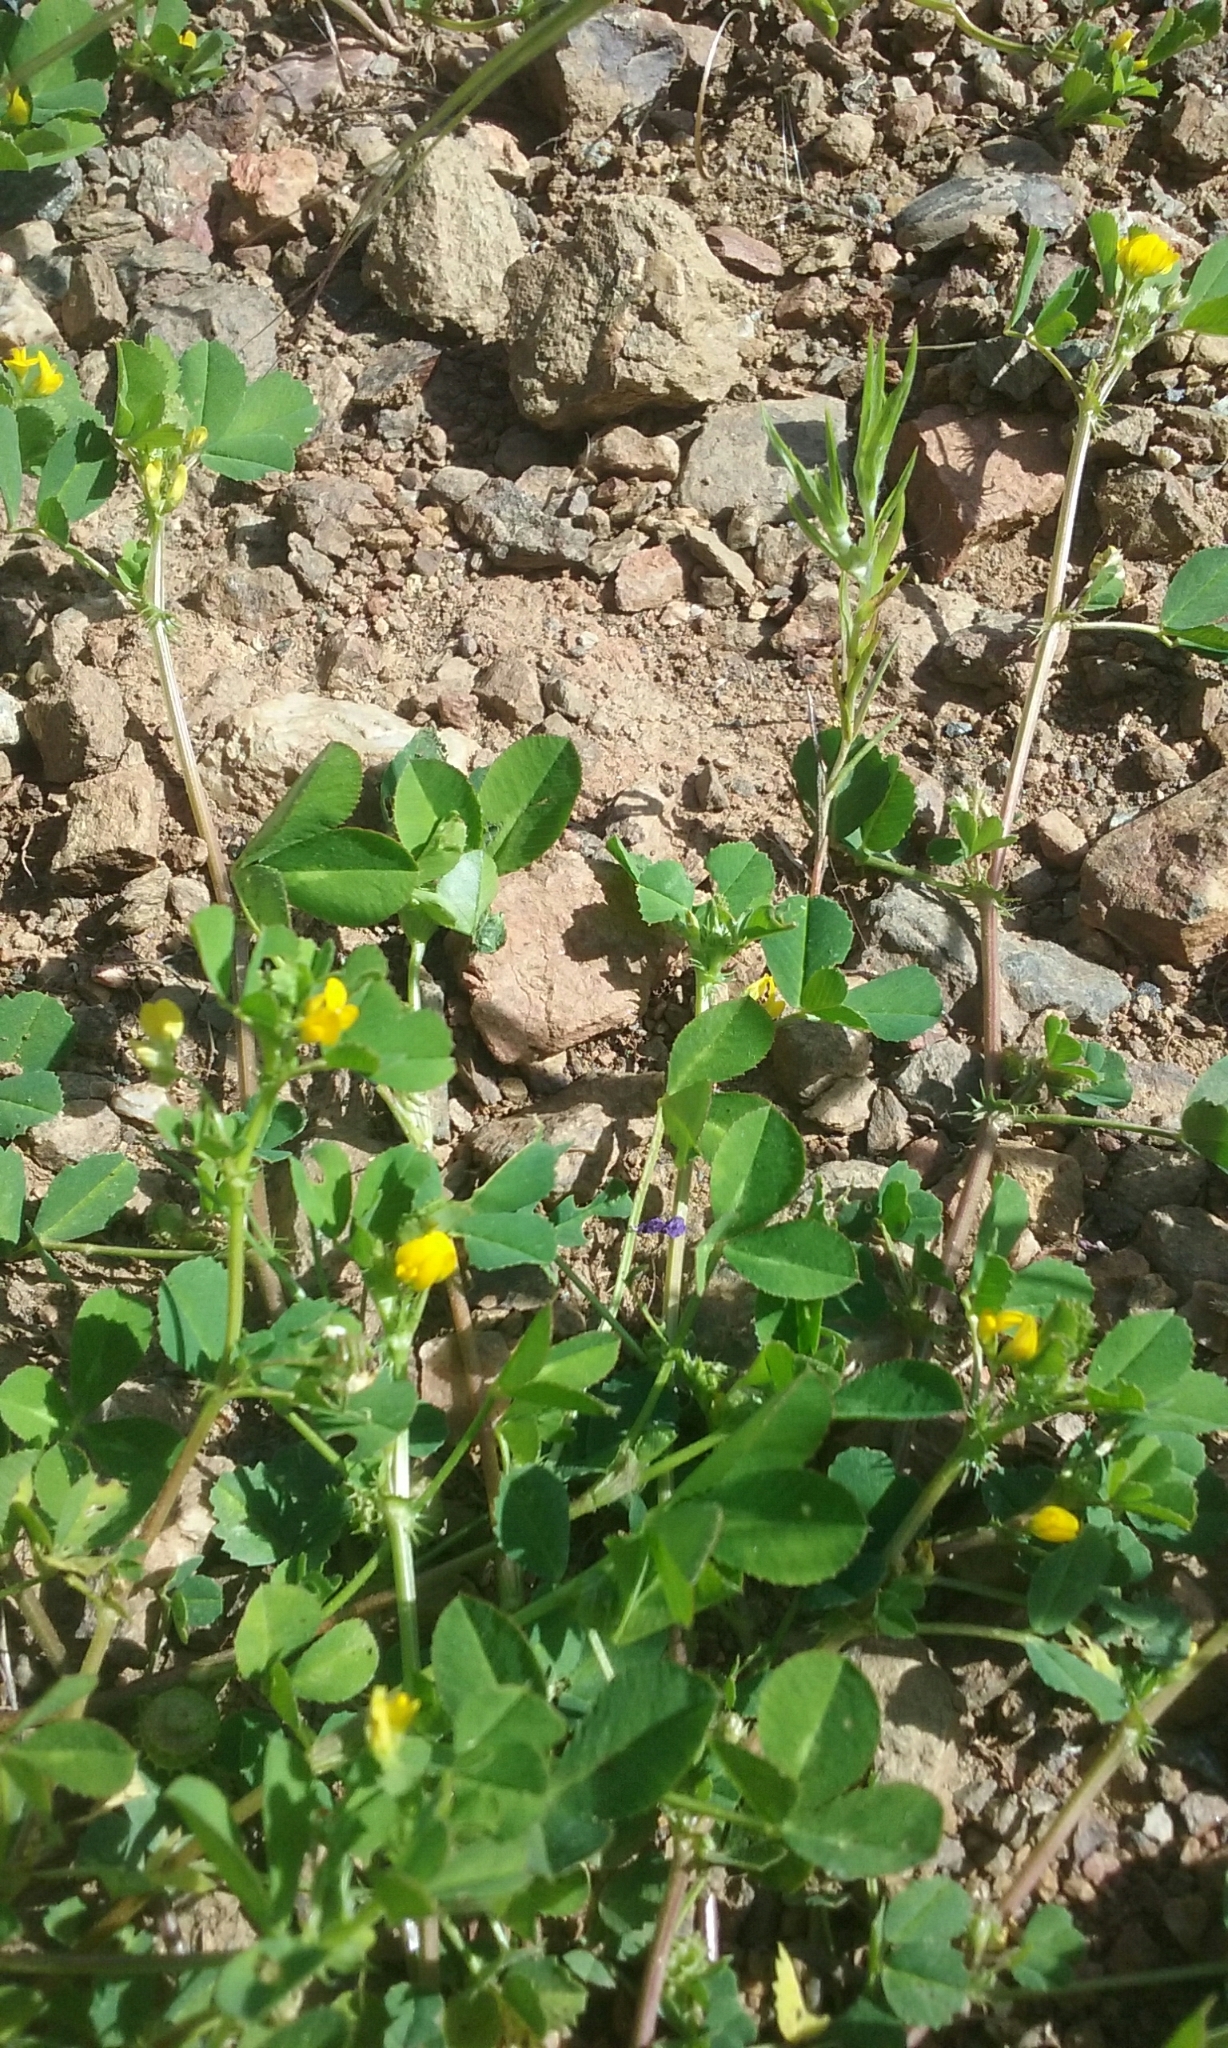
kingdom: Plantae
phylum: Tracheophyta
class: Magnoliopsida
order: Fabales
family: Fabaceae
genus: Medicago
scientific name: Medicago polymorpha
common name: Burclover
